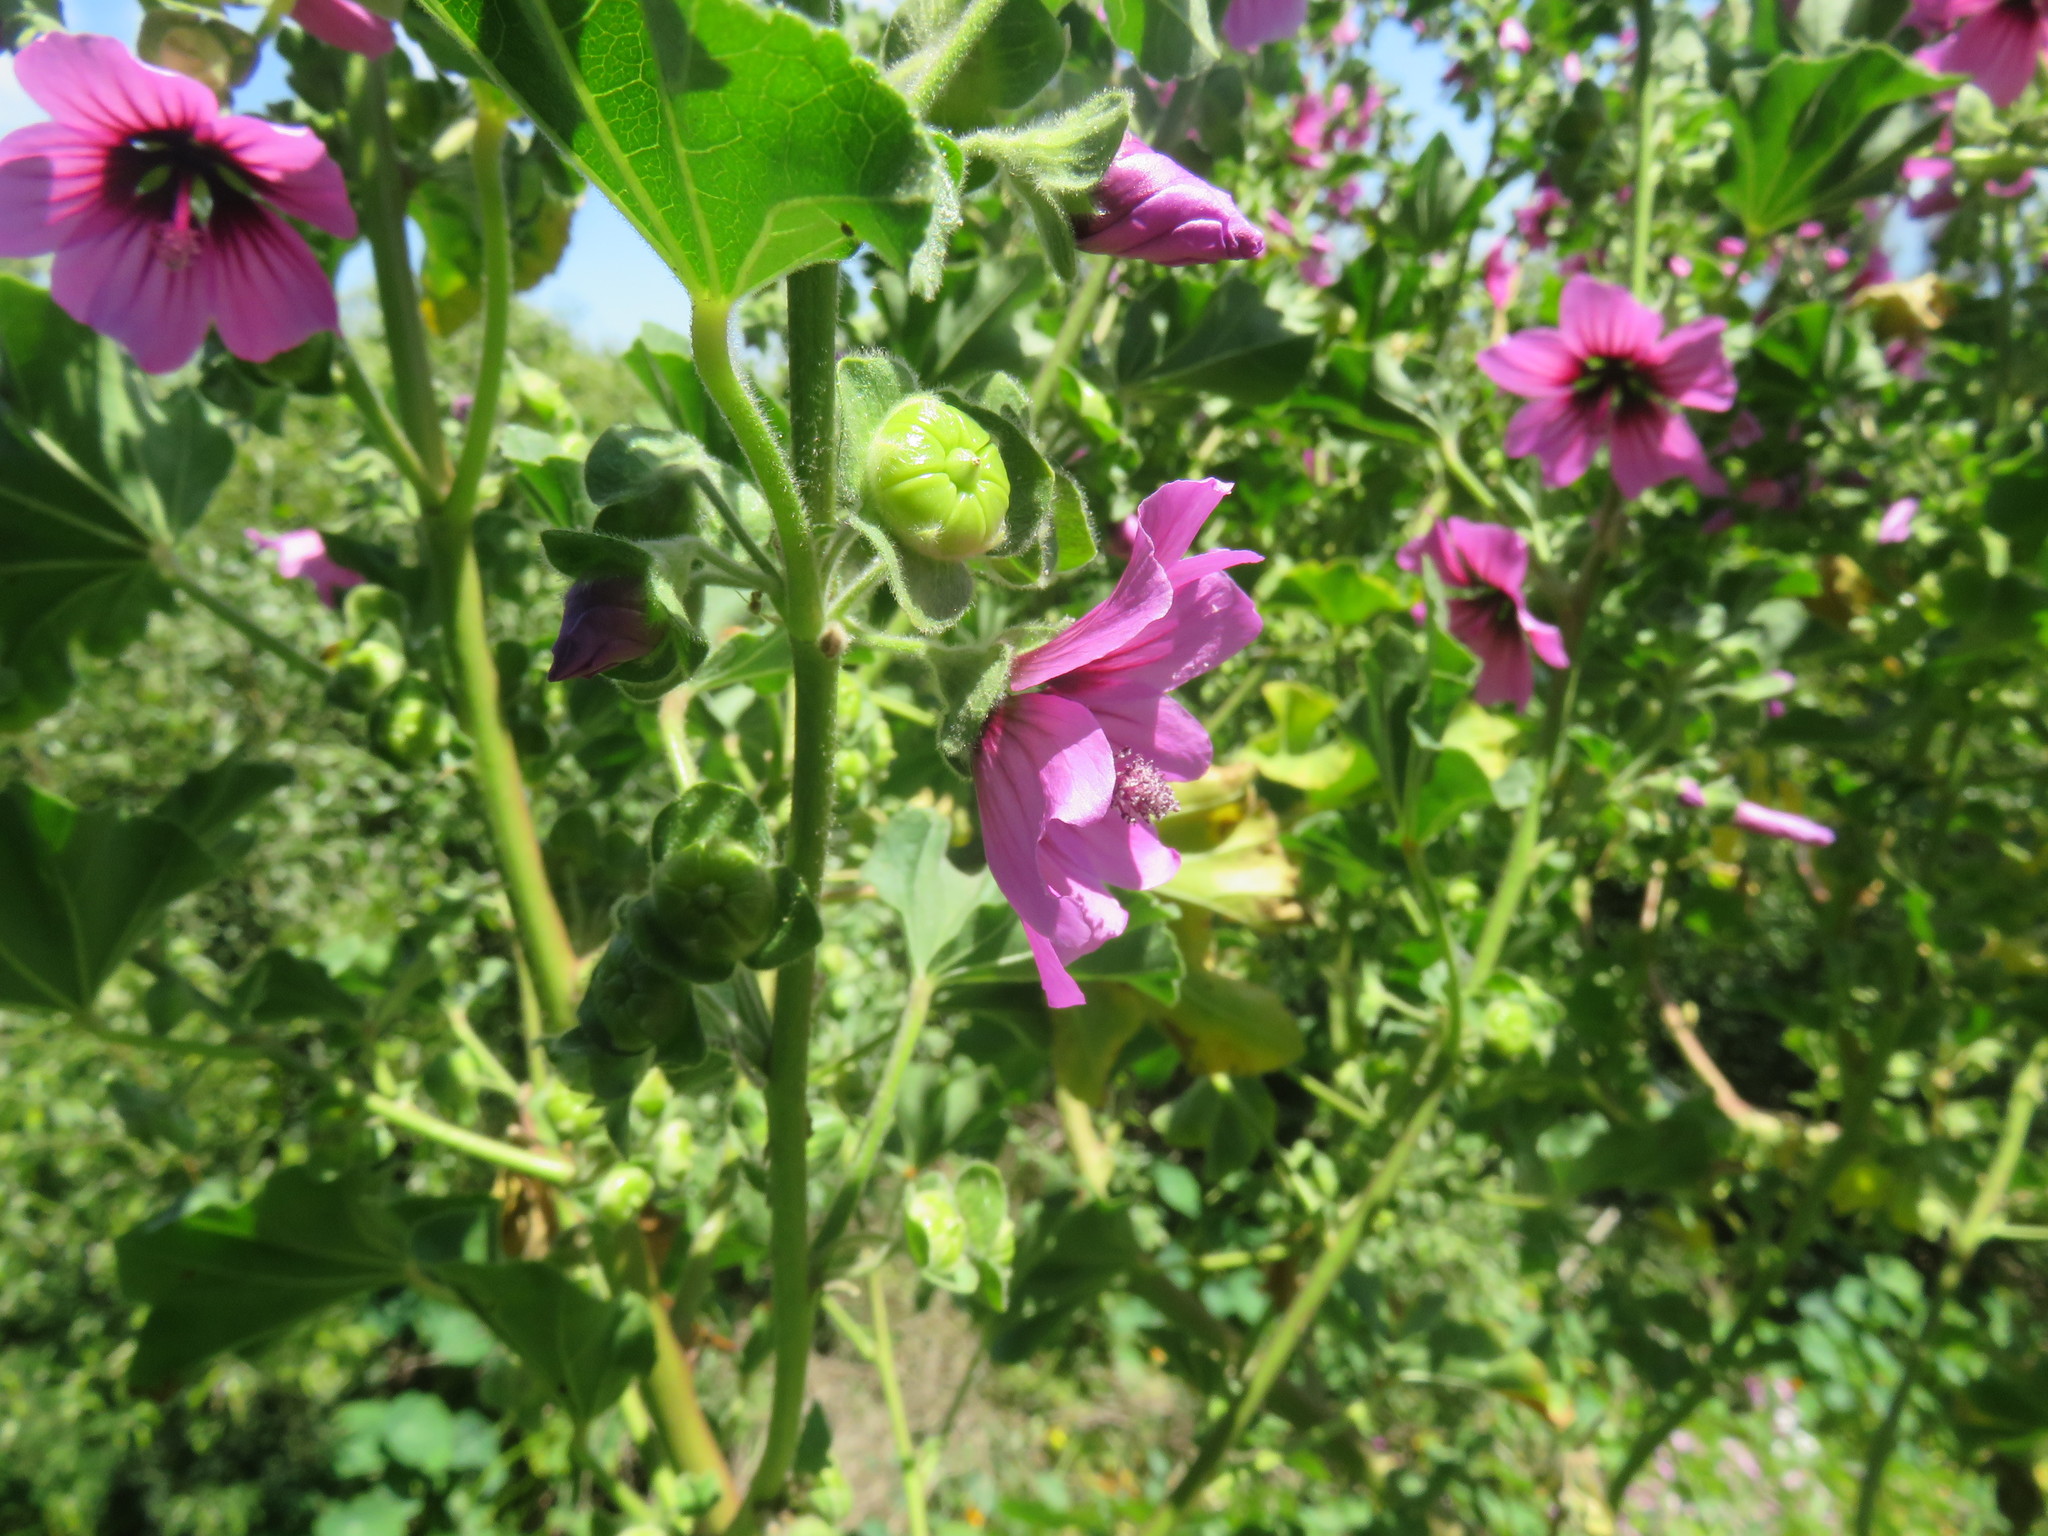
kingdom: Plantae
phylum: Tracheophyta
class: Magnoliopsida
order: Malvales
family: Malvaceae
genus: Malva
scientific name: Malva arborea
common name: Tree mallow
